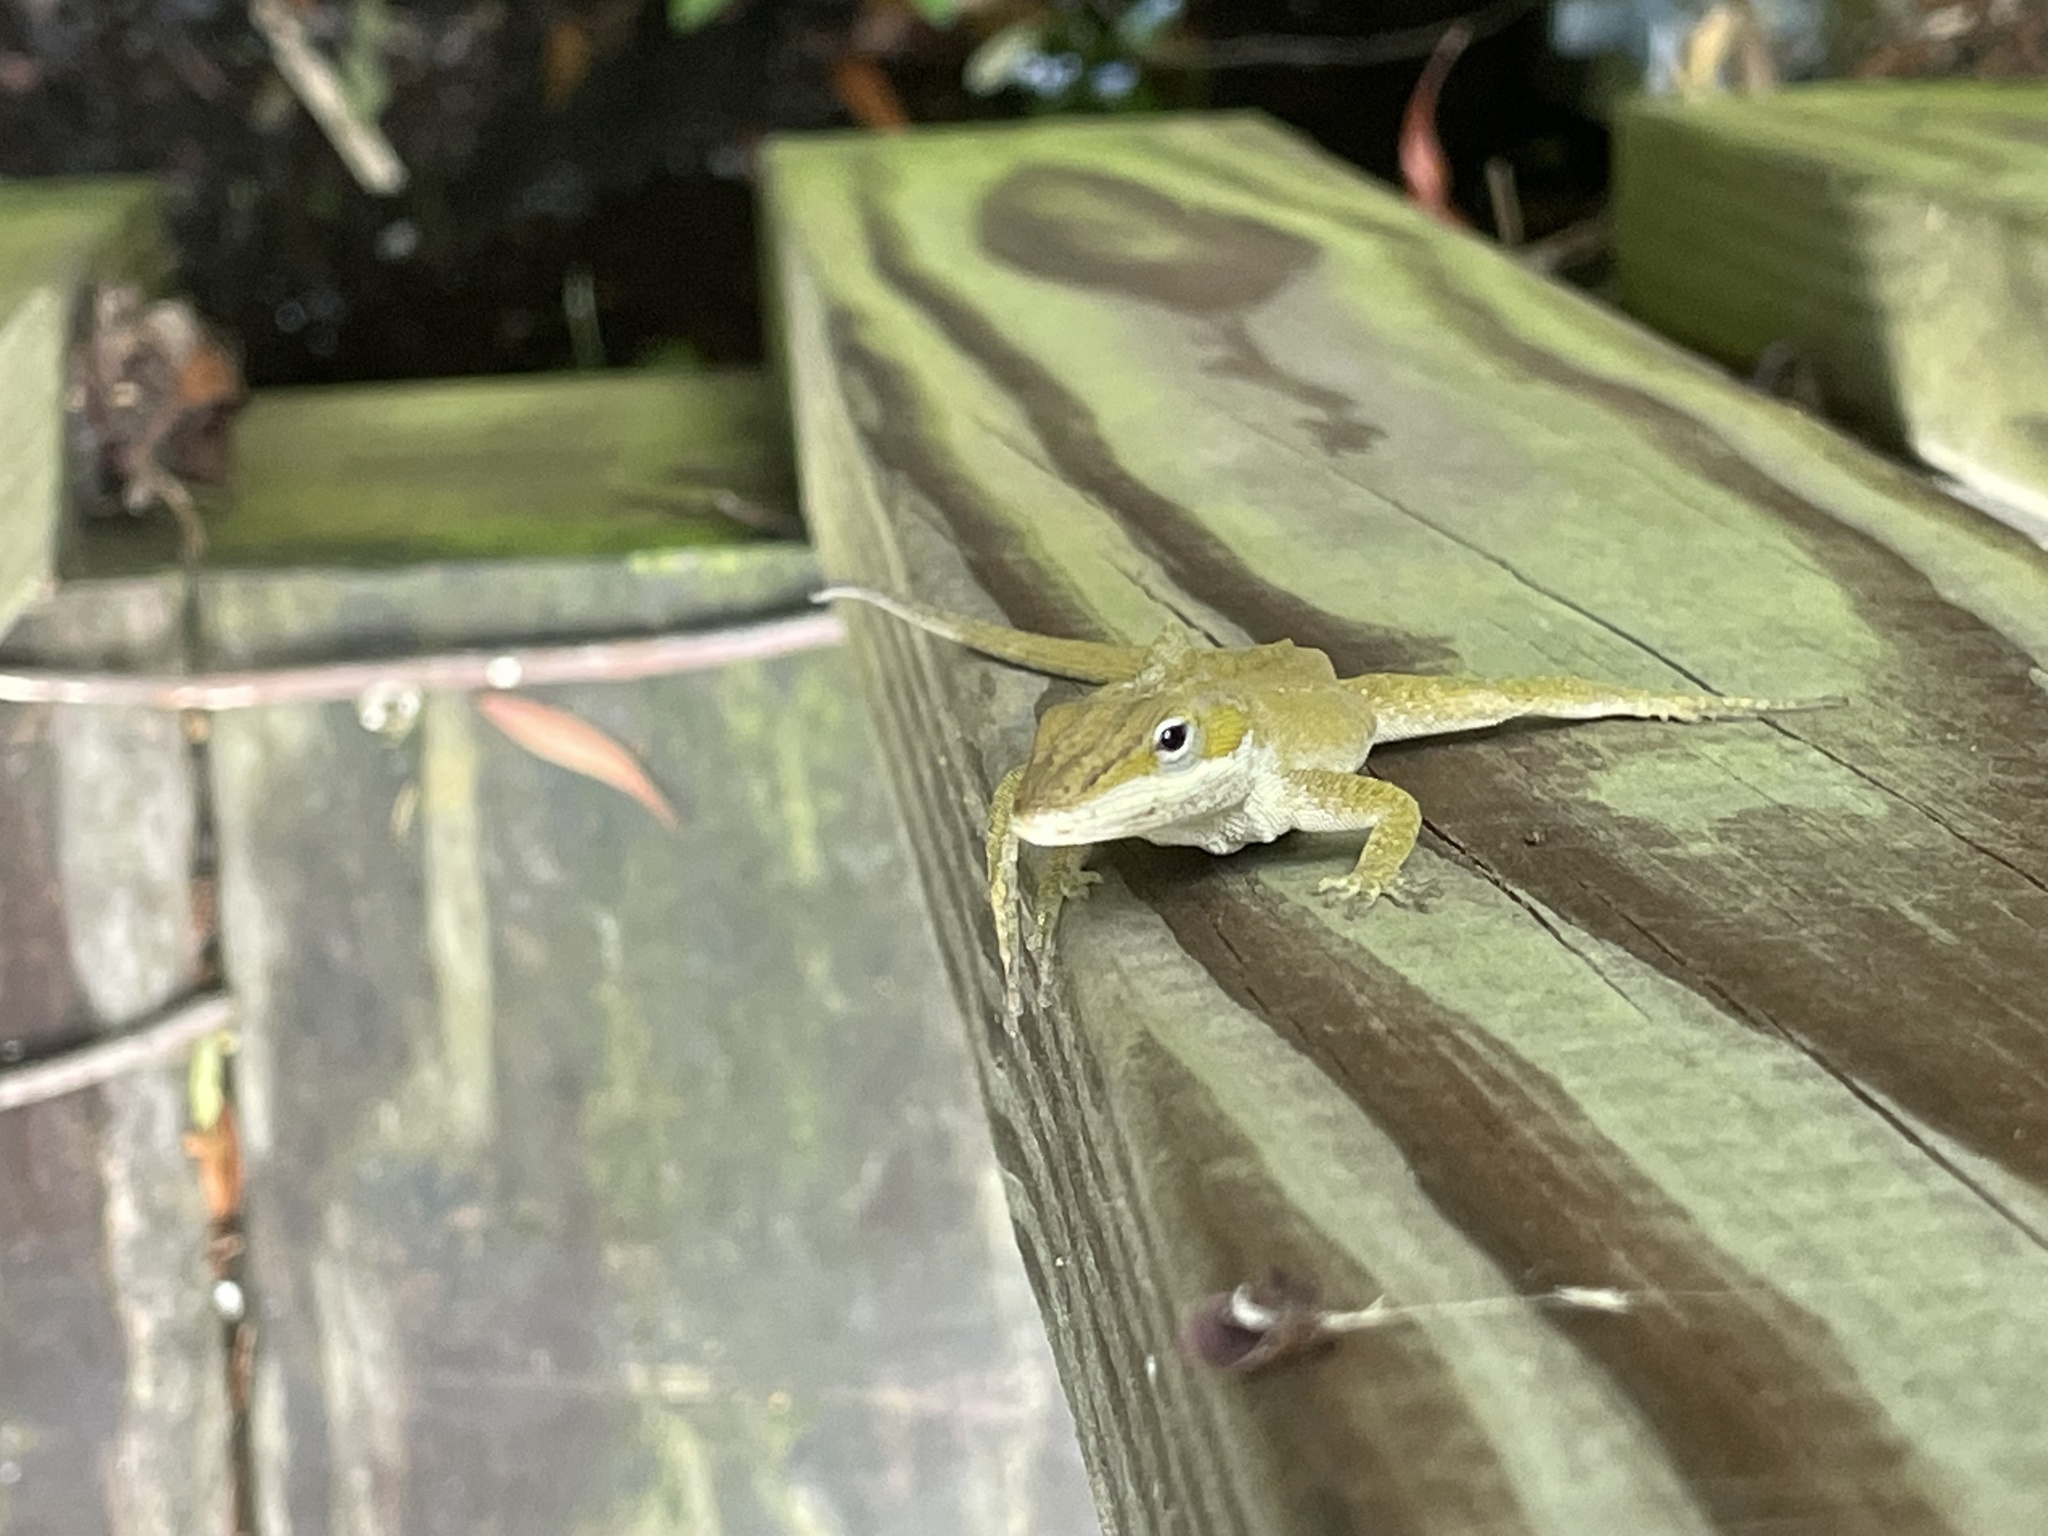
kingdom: Animalia
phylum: Chordata
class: Squamata
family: Dactyloidae
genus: Anolis
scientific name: Anolis carolinensis
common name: Green anole
